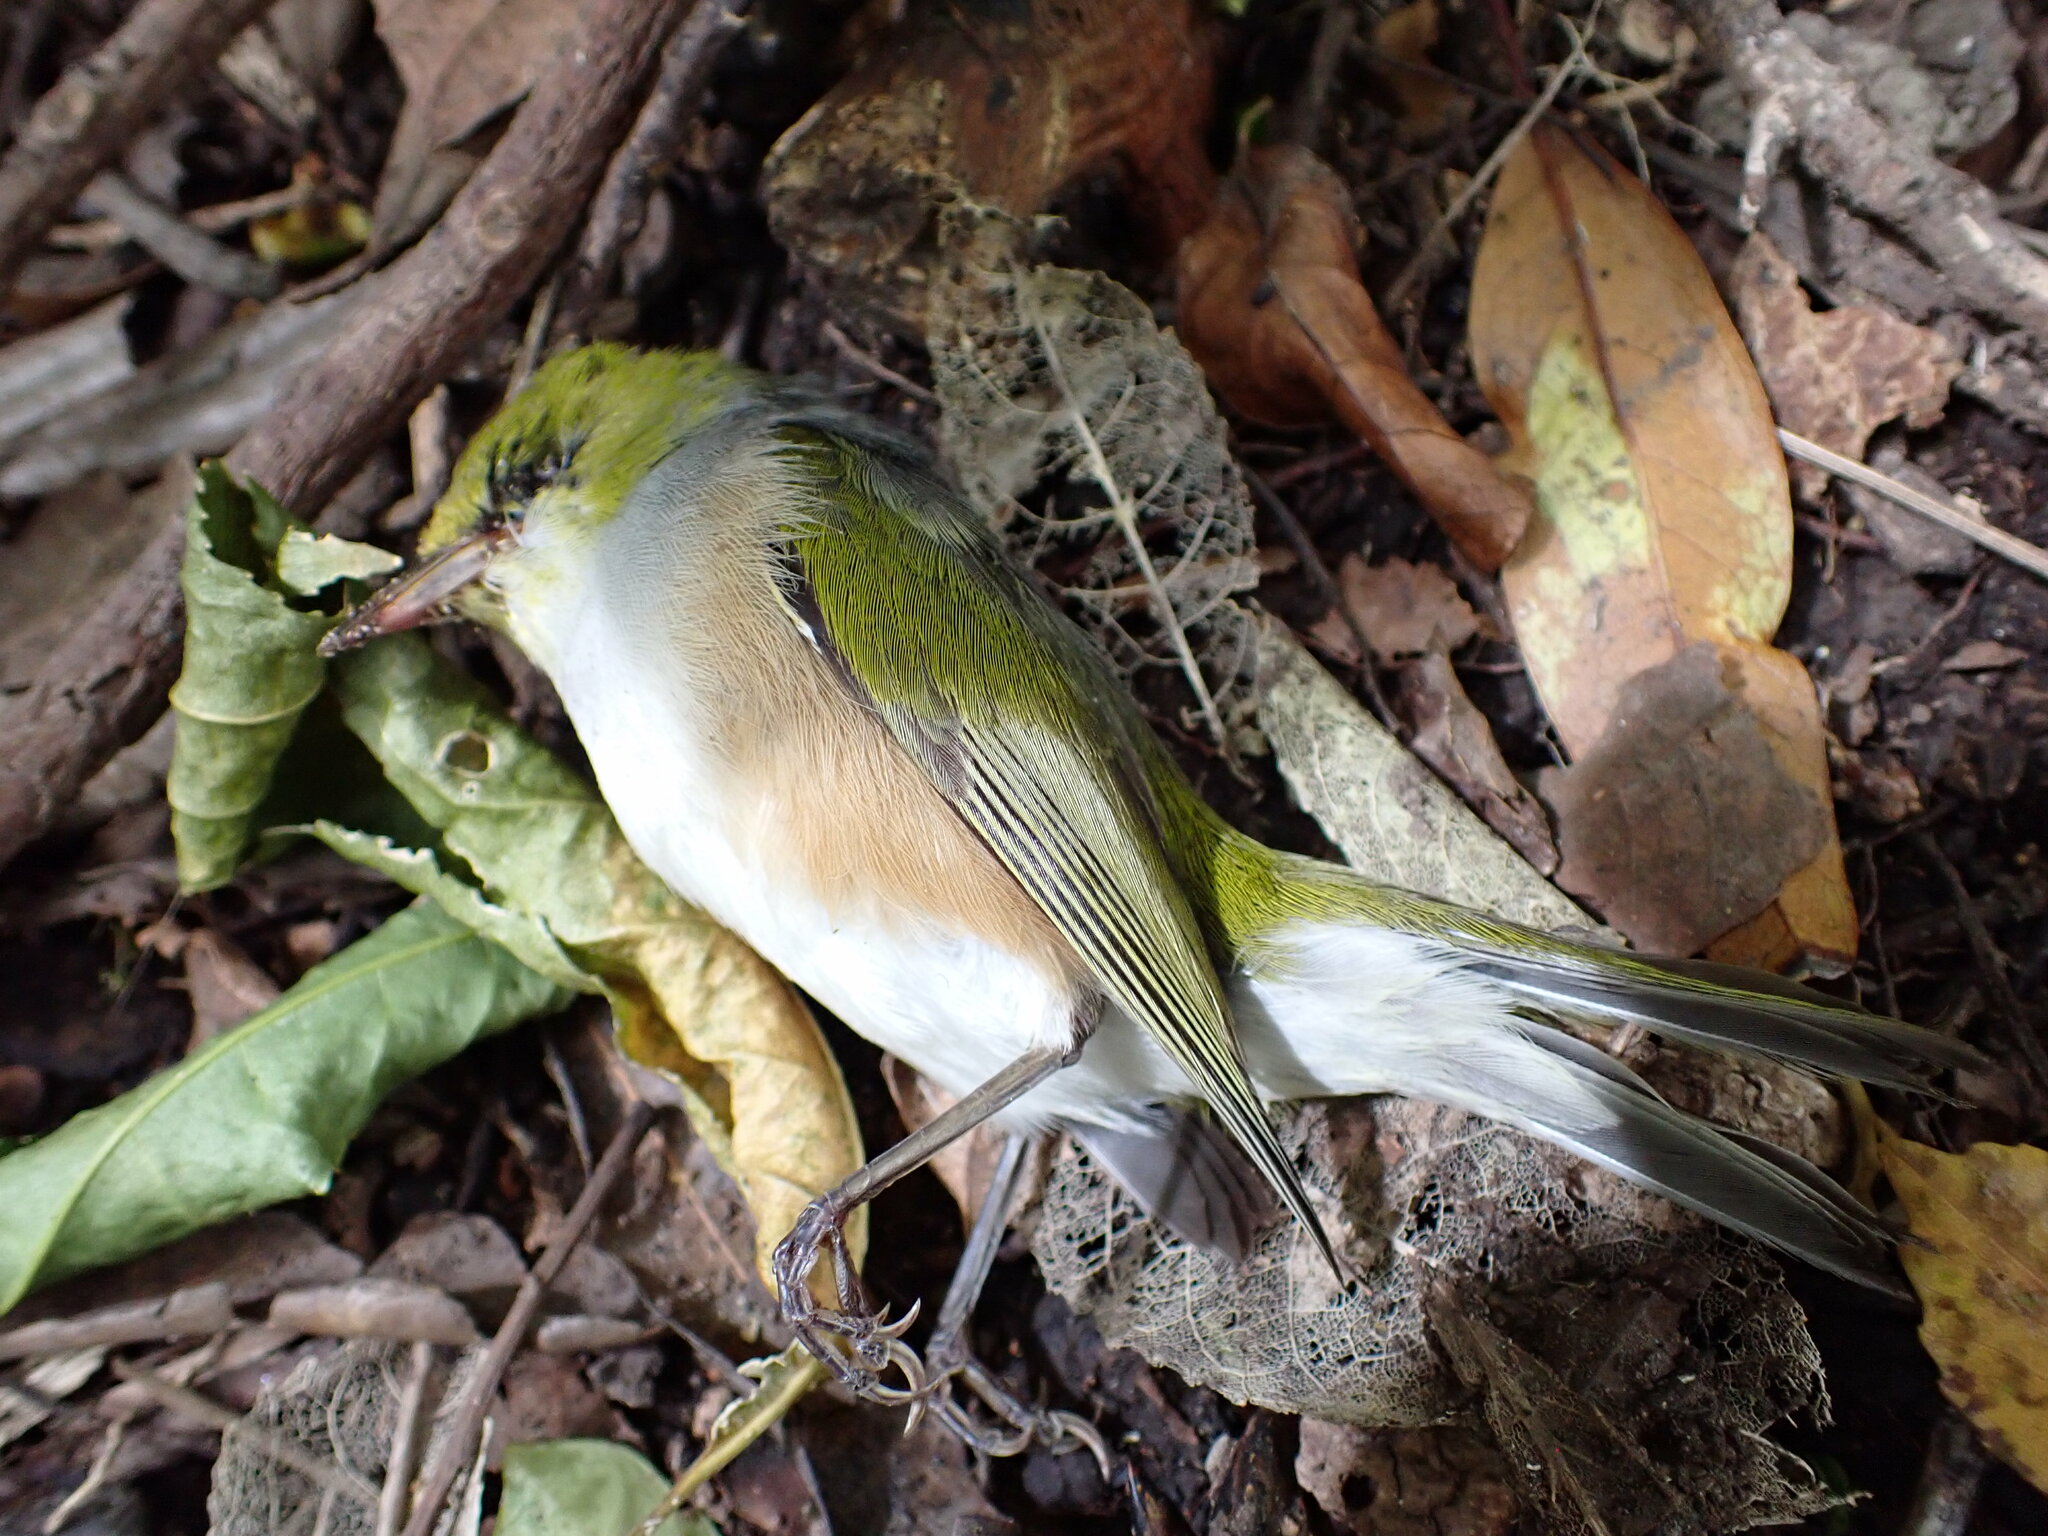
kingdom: Animalia
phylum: Chordata
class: Aves
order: Passeriformes
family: Zosteropidae
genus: Zosterops
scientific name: Zosterops lateralis
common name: Silvereye
